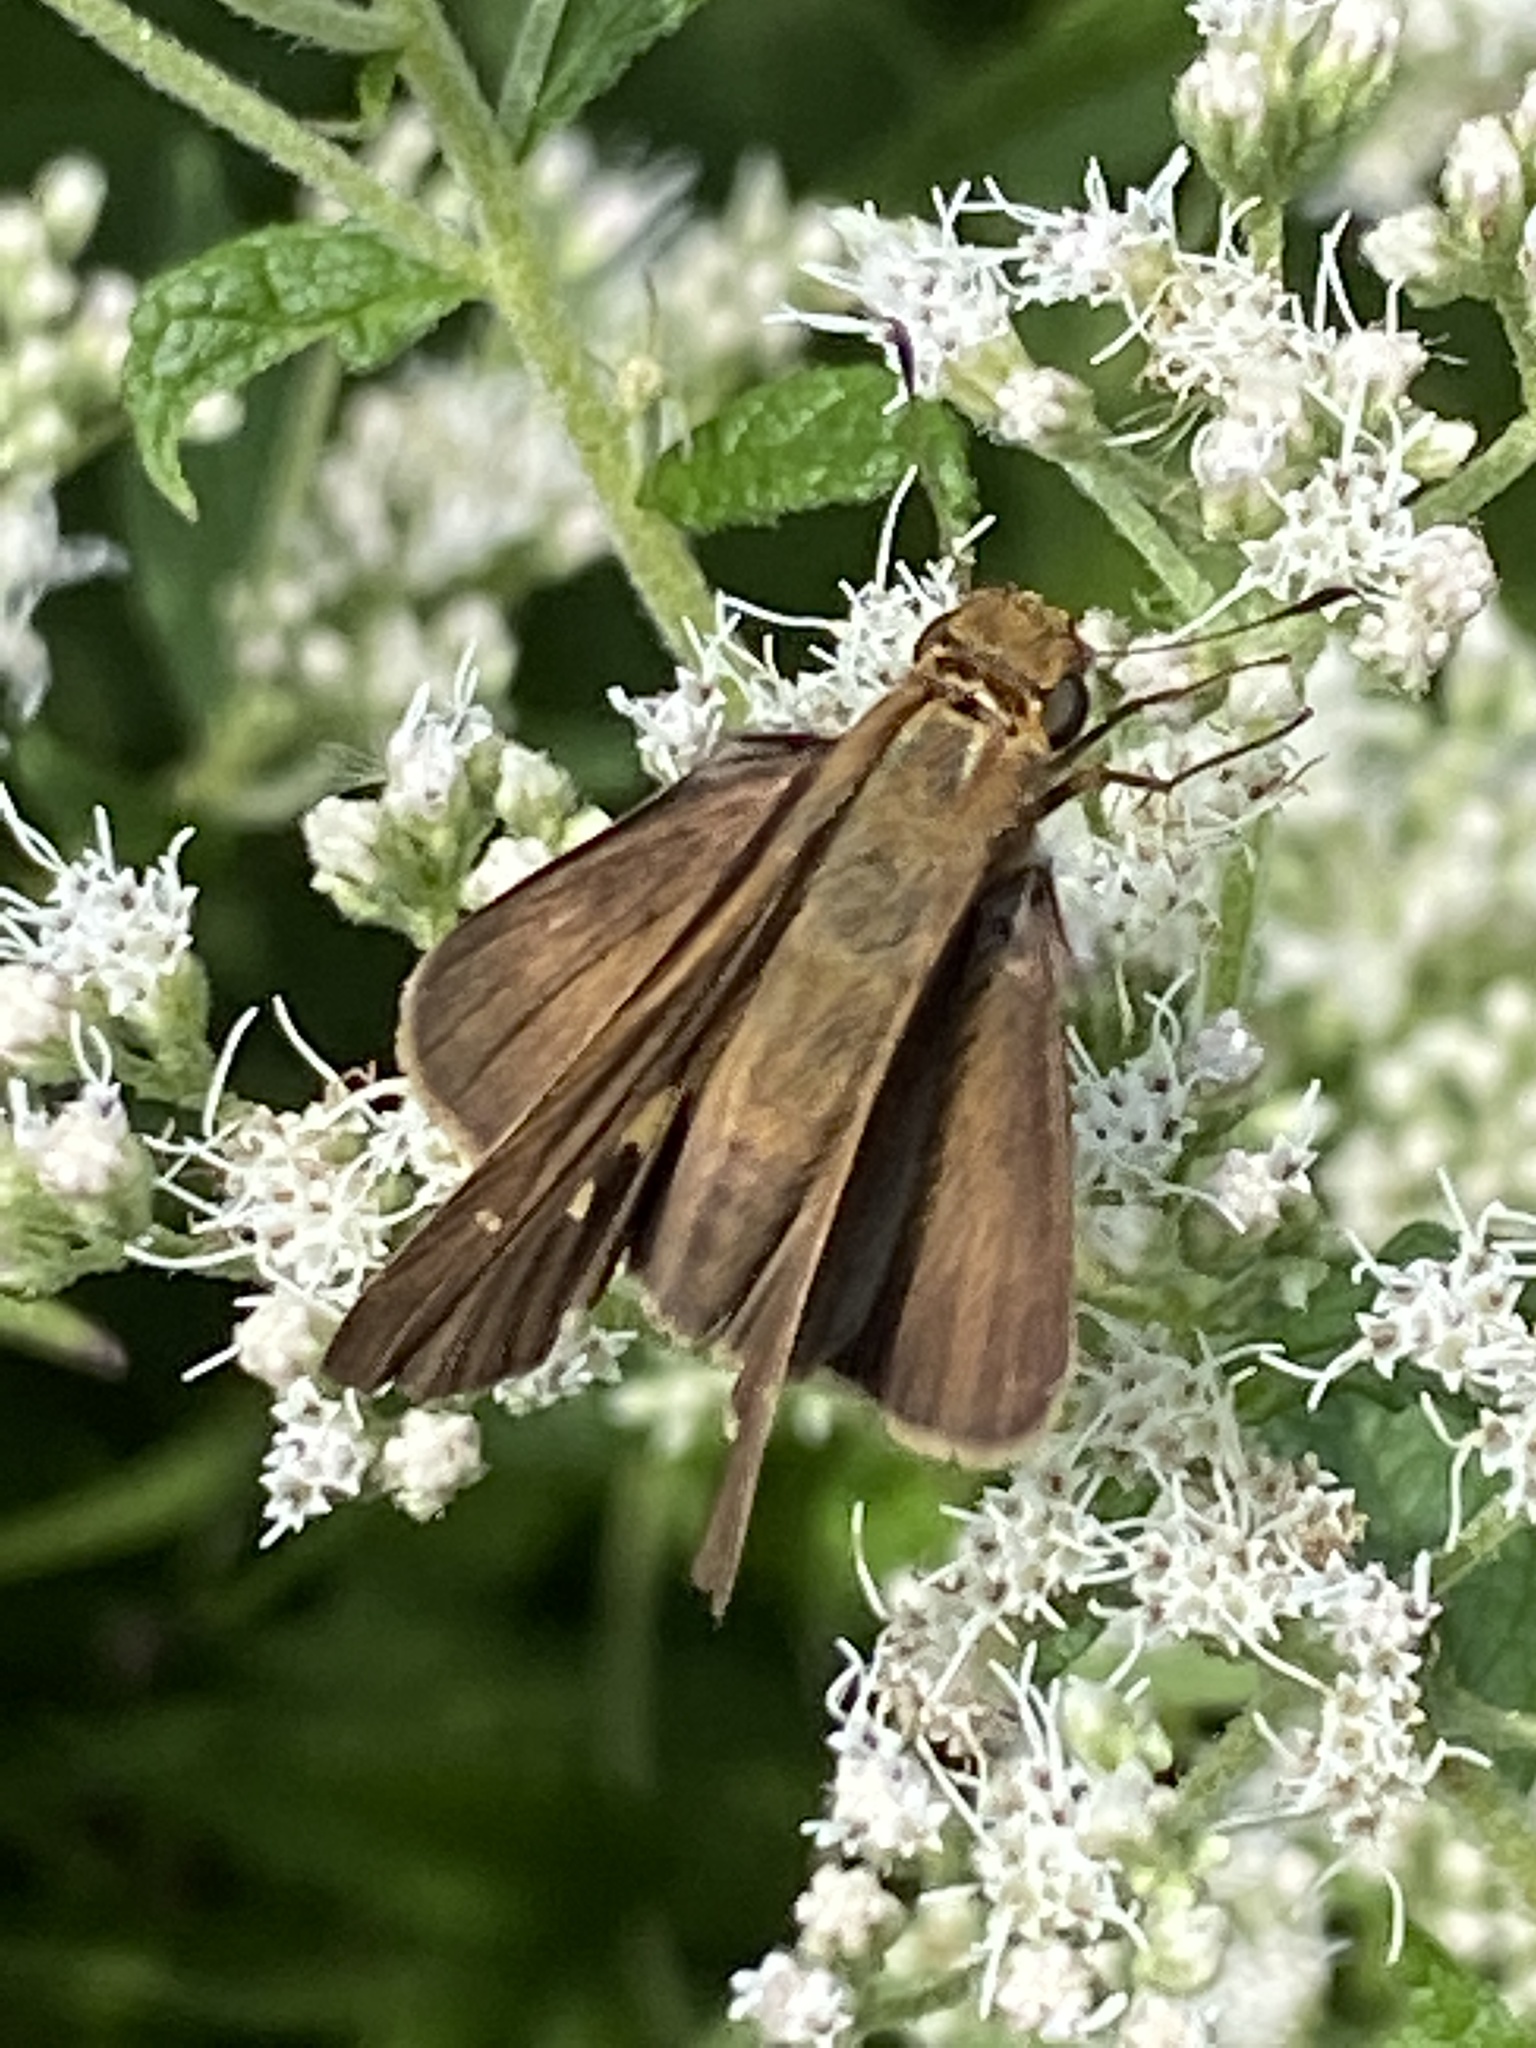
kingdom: Animalia
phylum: Arthropoda
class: Insecta
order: Lepidoptera
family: Hesperiidae
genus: Panoquina
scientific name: Panoquina ocola
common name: Ocola skipper
